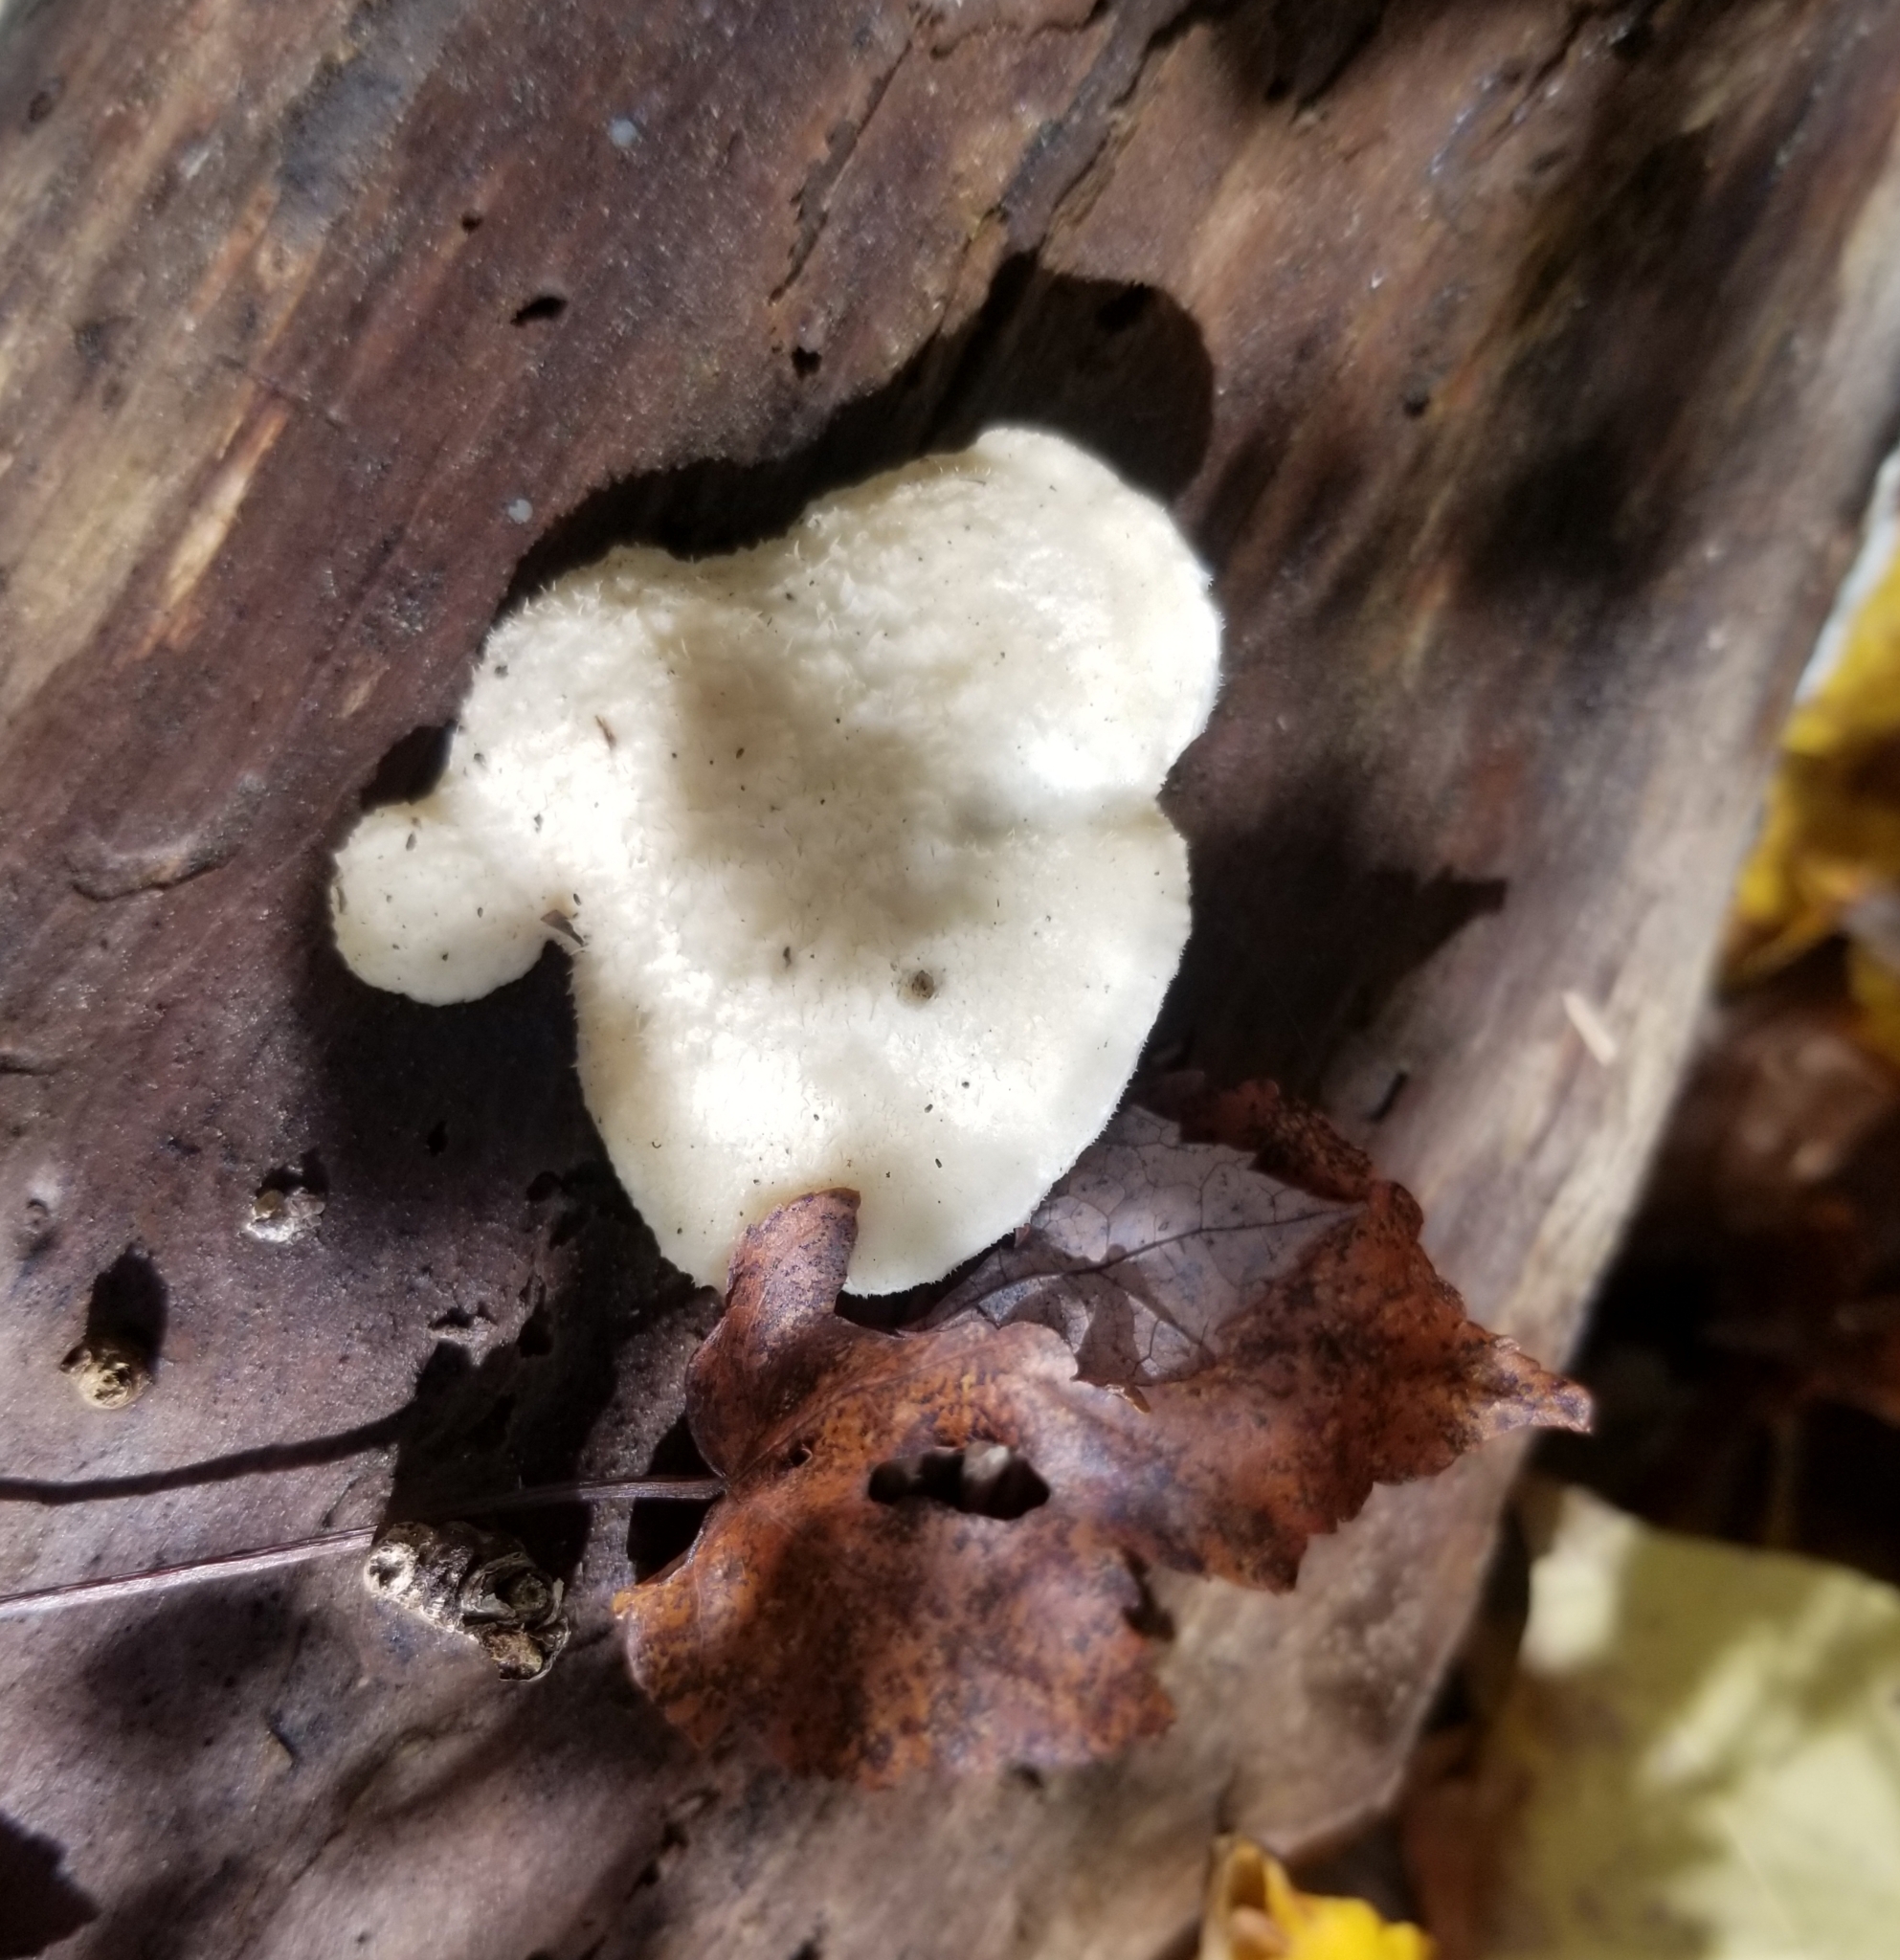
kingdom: Fungi
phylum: Basidiomycota
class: Agaricomycetes
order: Polyporales
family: Polyporaceae
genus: Cyanosporus
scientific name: Cyanosporus caesius
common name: Blue cheese polypore
